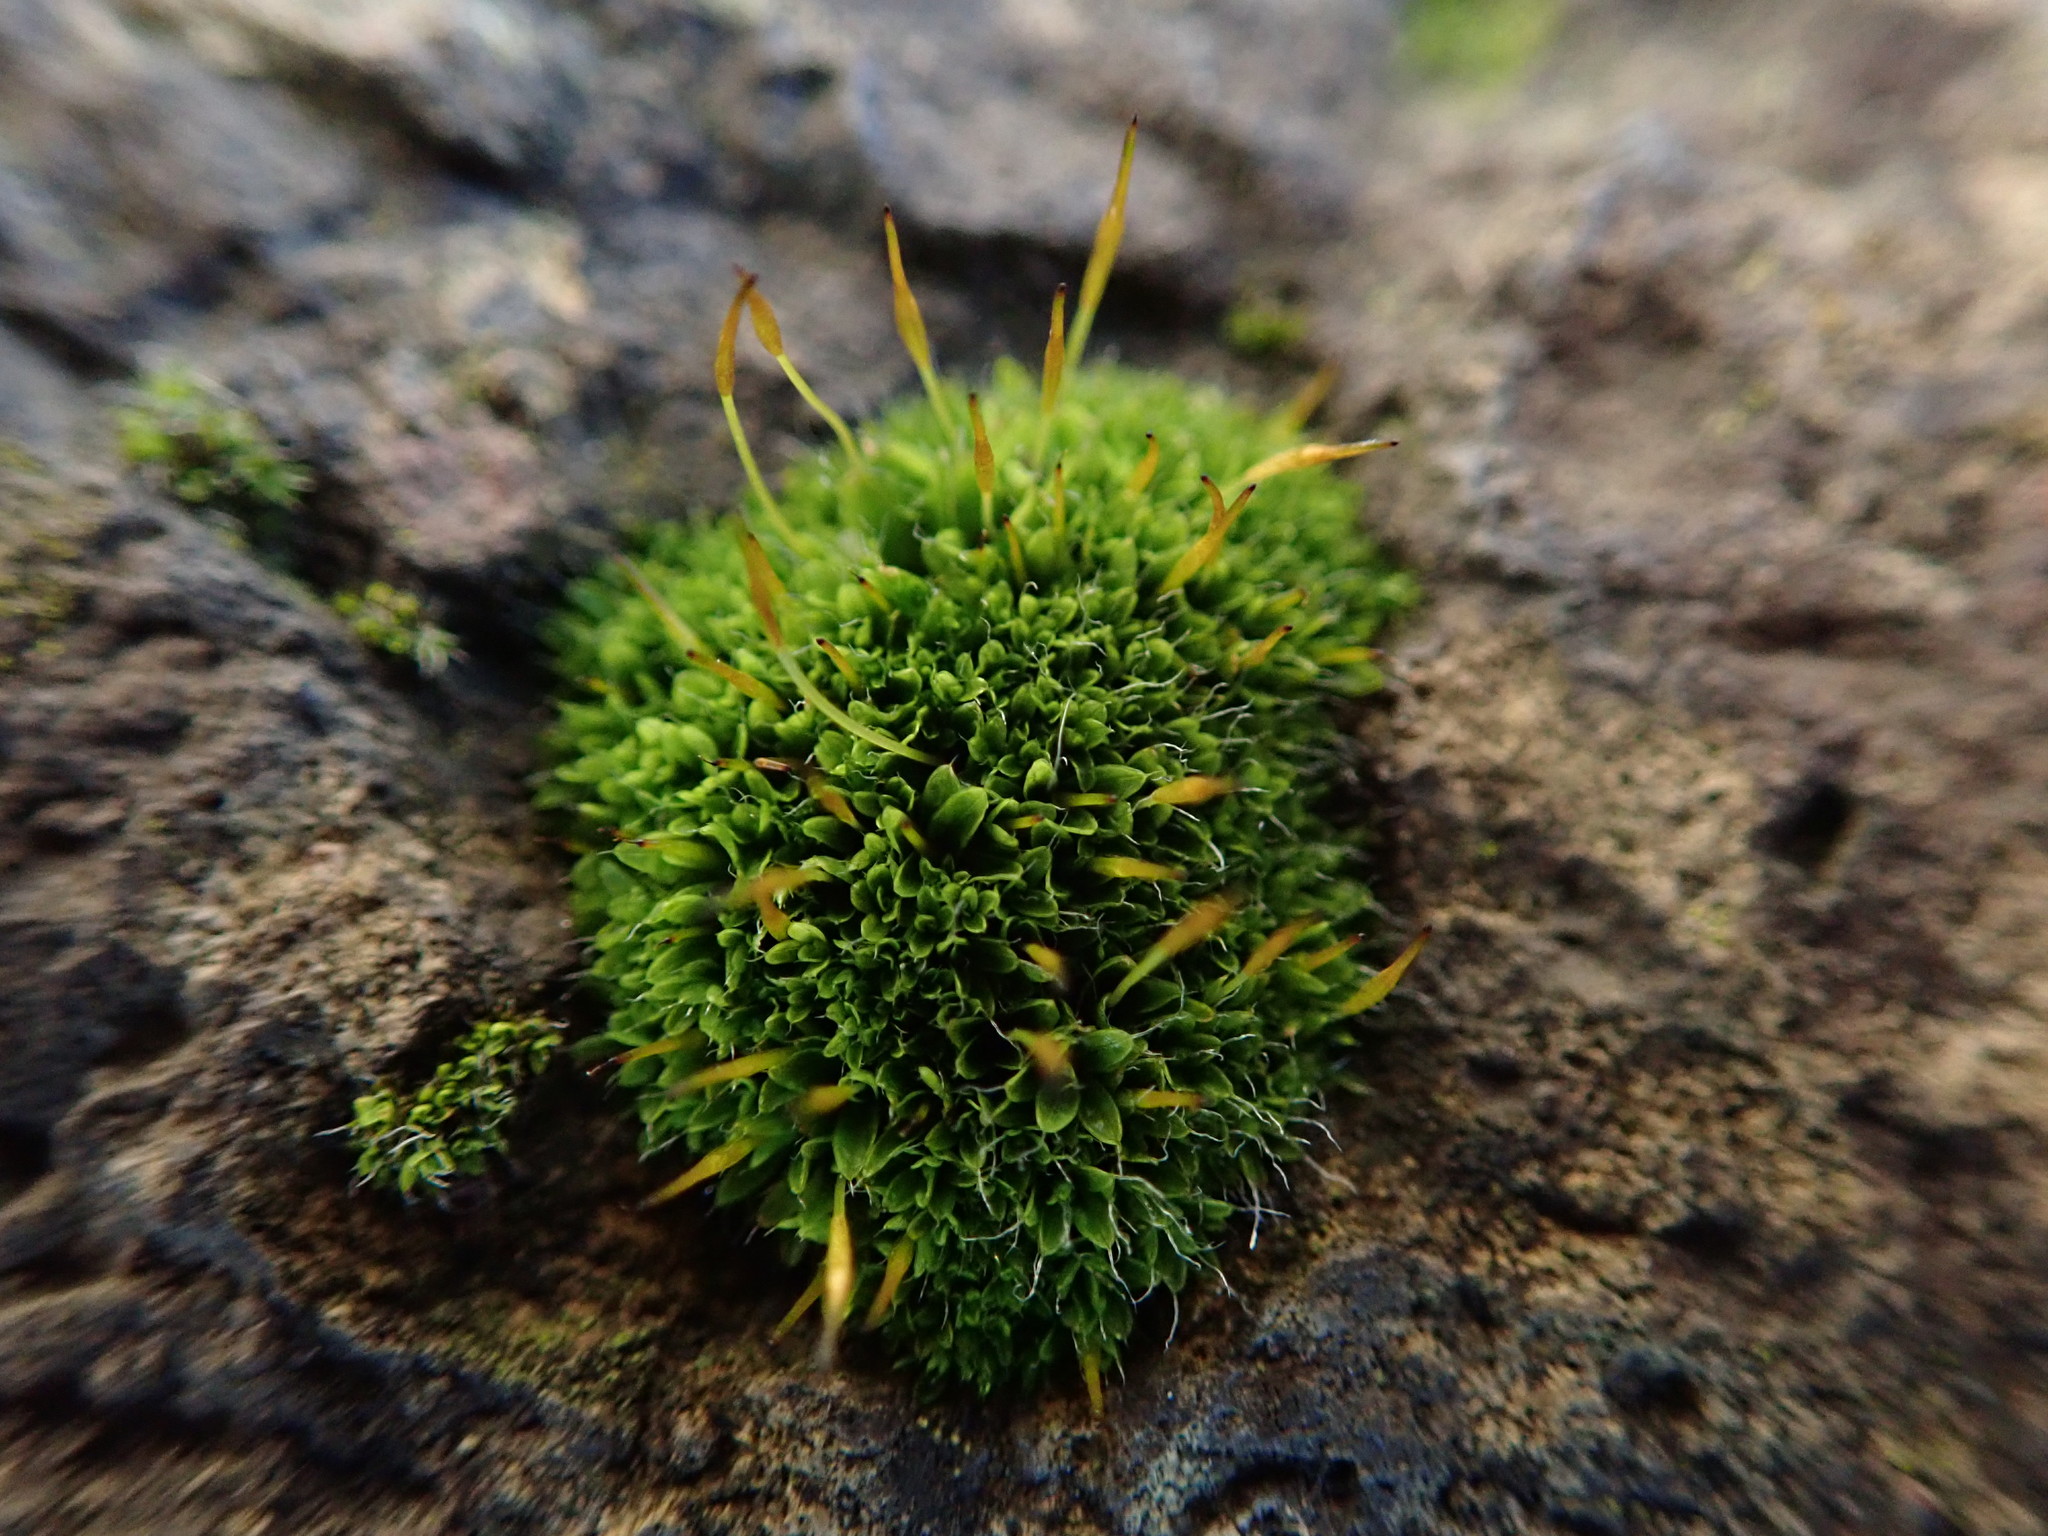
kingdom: Plantae
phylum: Bryophyta
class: Bryopsida
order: Pottiales
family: Pottiaceae
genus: Tortula
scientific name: Tortula muralis
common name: Wall screw-moss
